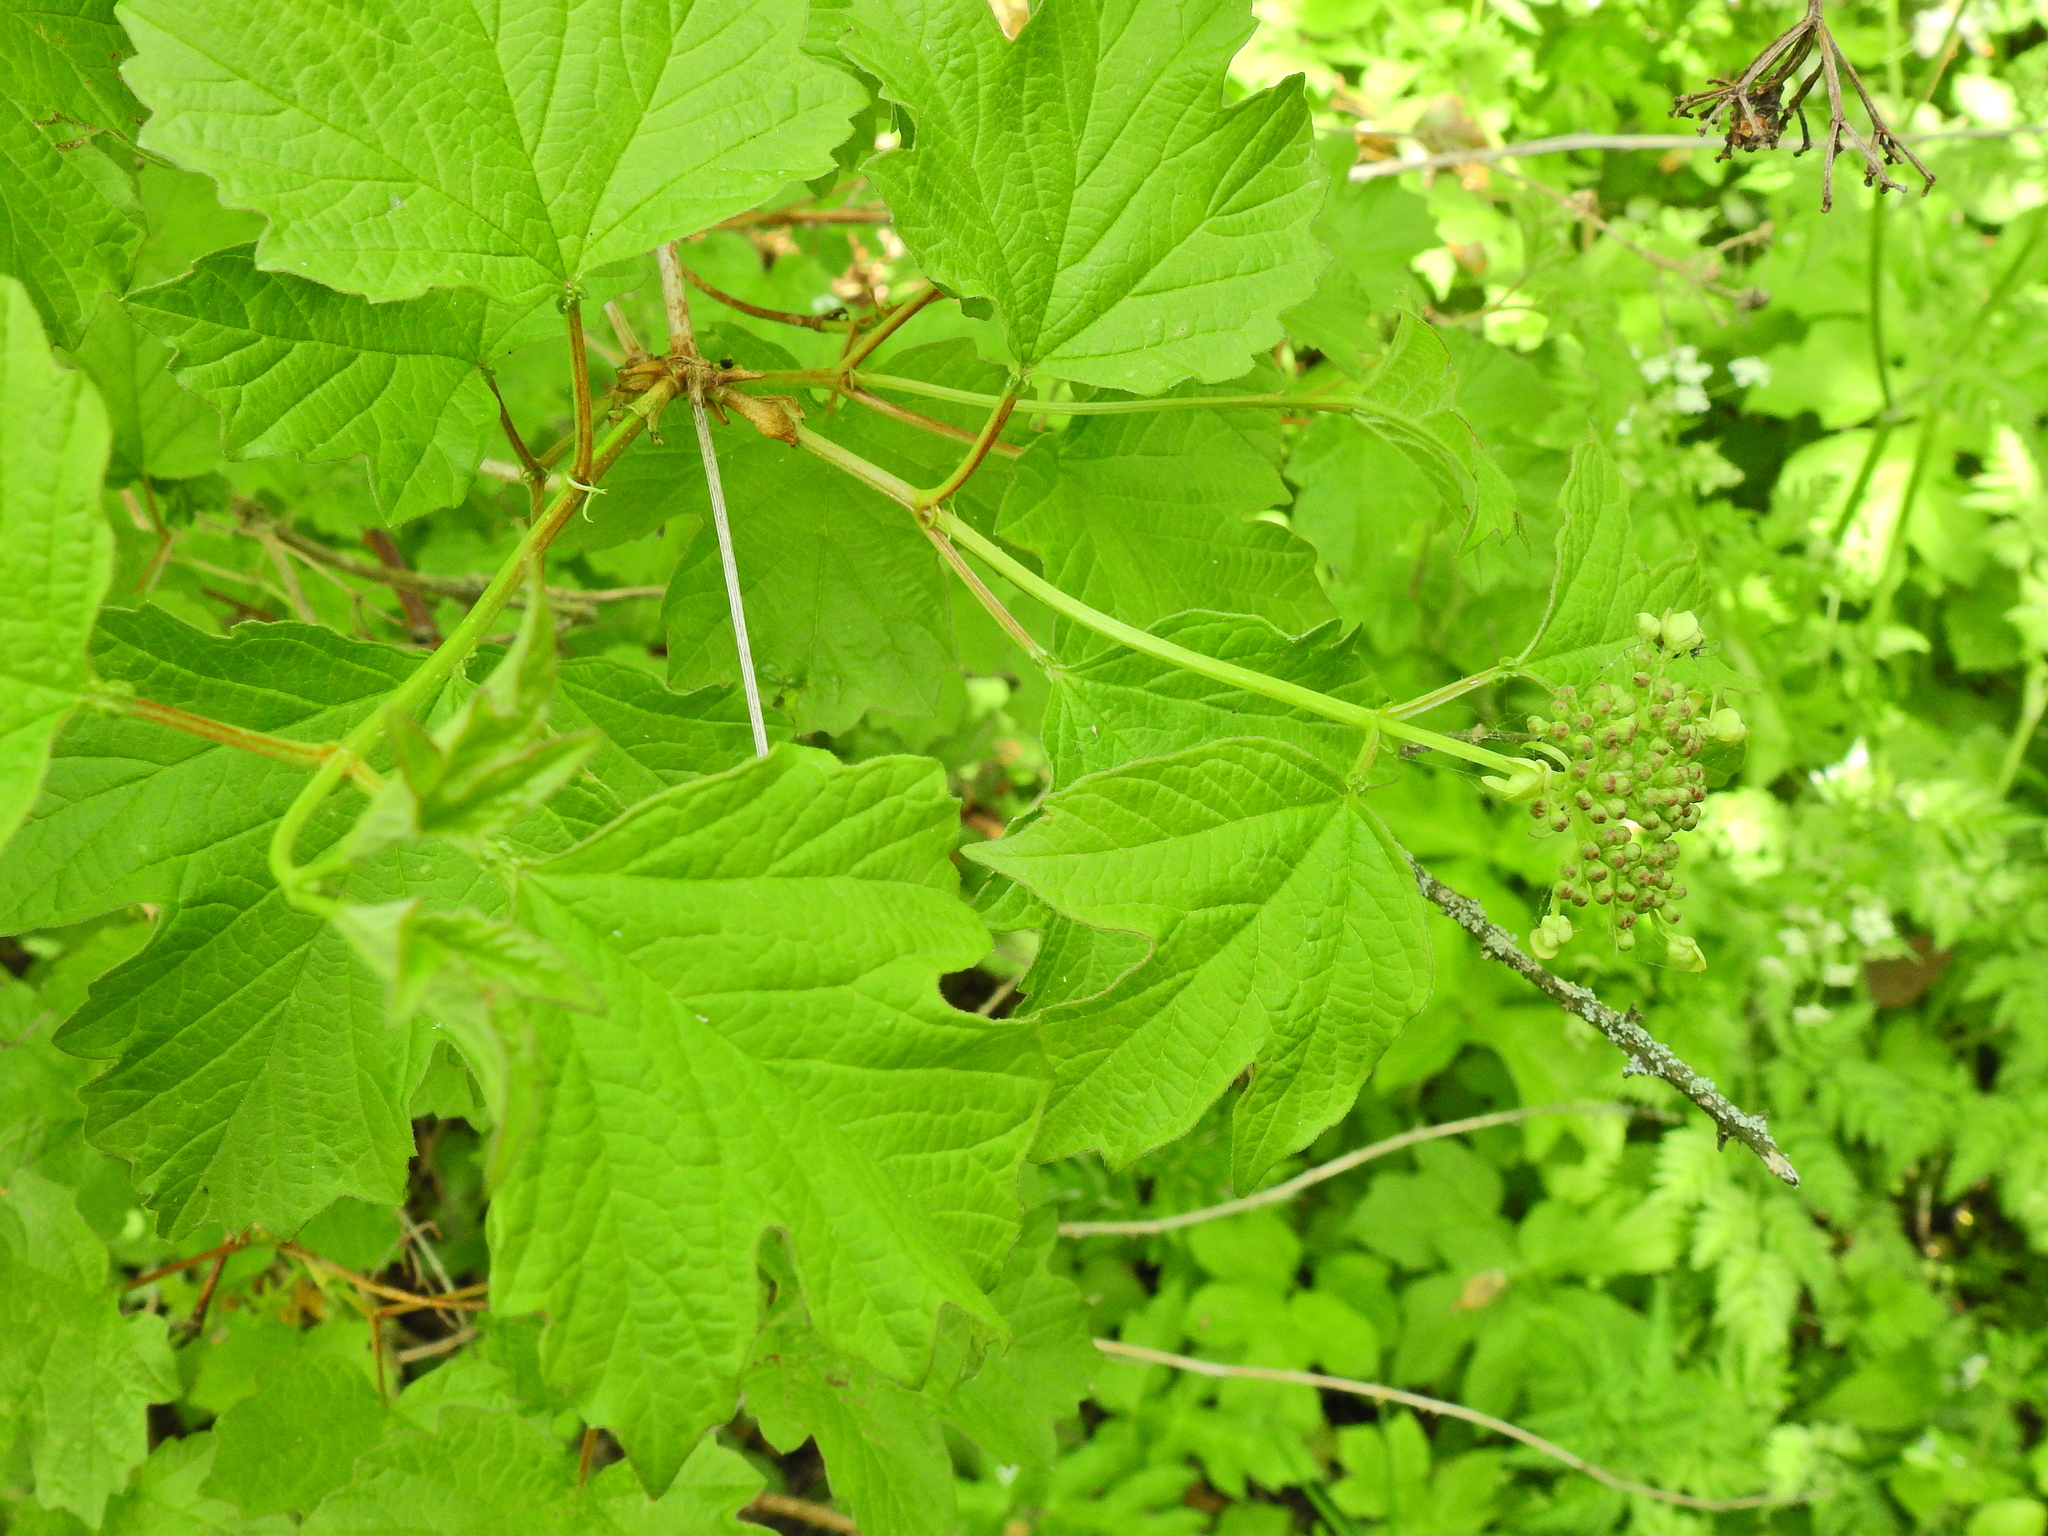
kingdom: Plantae
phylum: Tracheophyta
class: Magnoliopsida
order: Dipsacales
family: Viburnaceae
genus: Viburnum
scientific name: Viburnum opulus
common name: Guelder-rose
